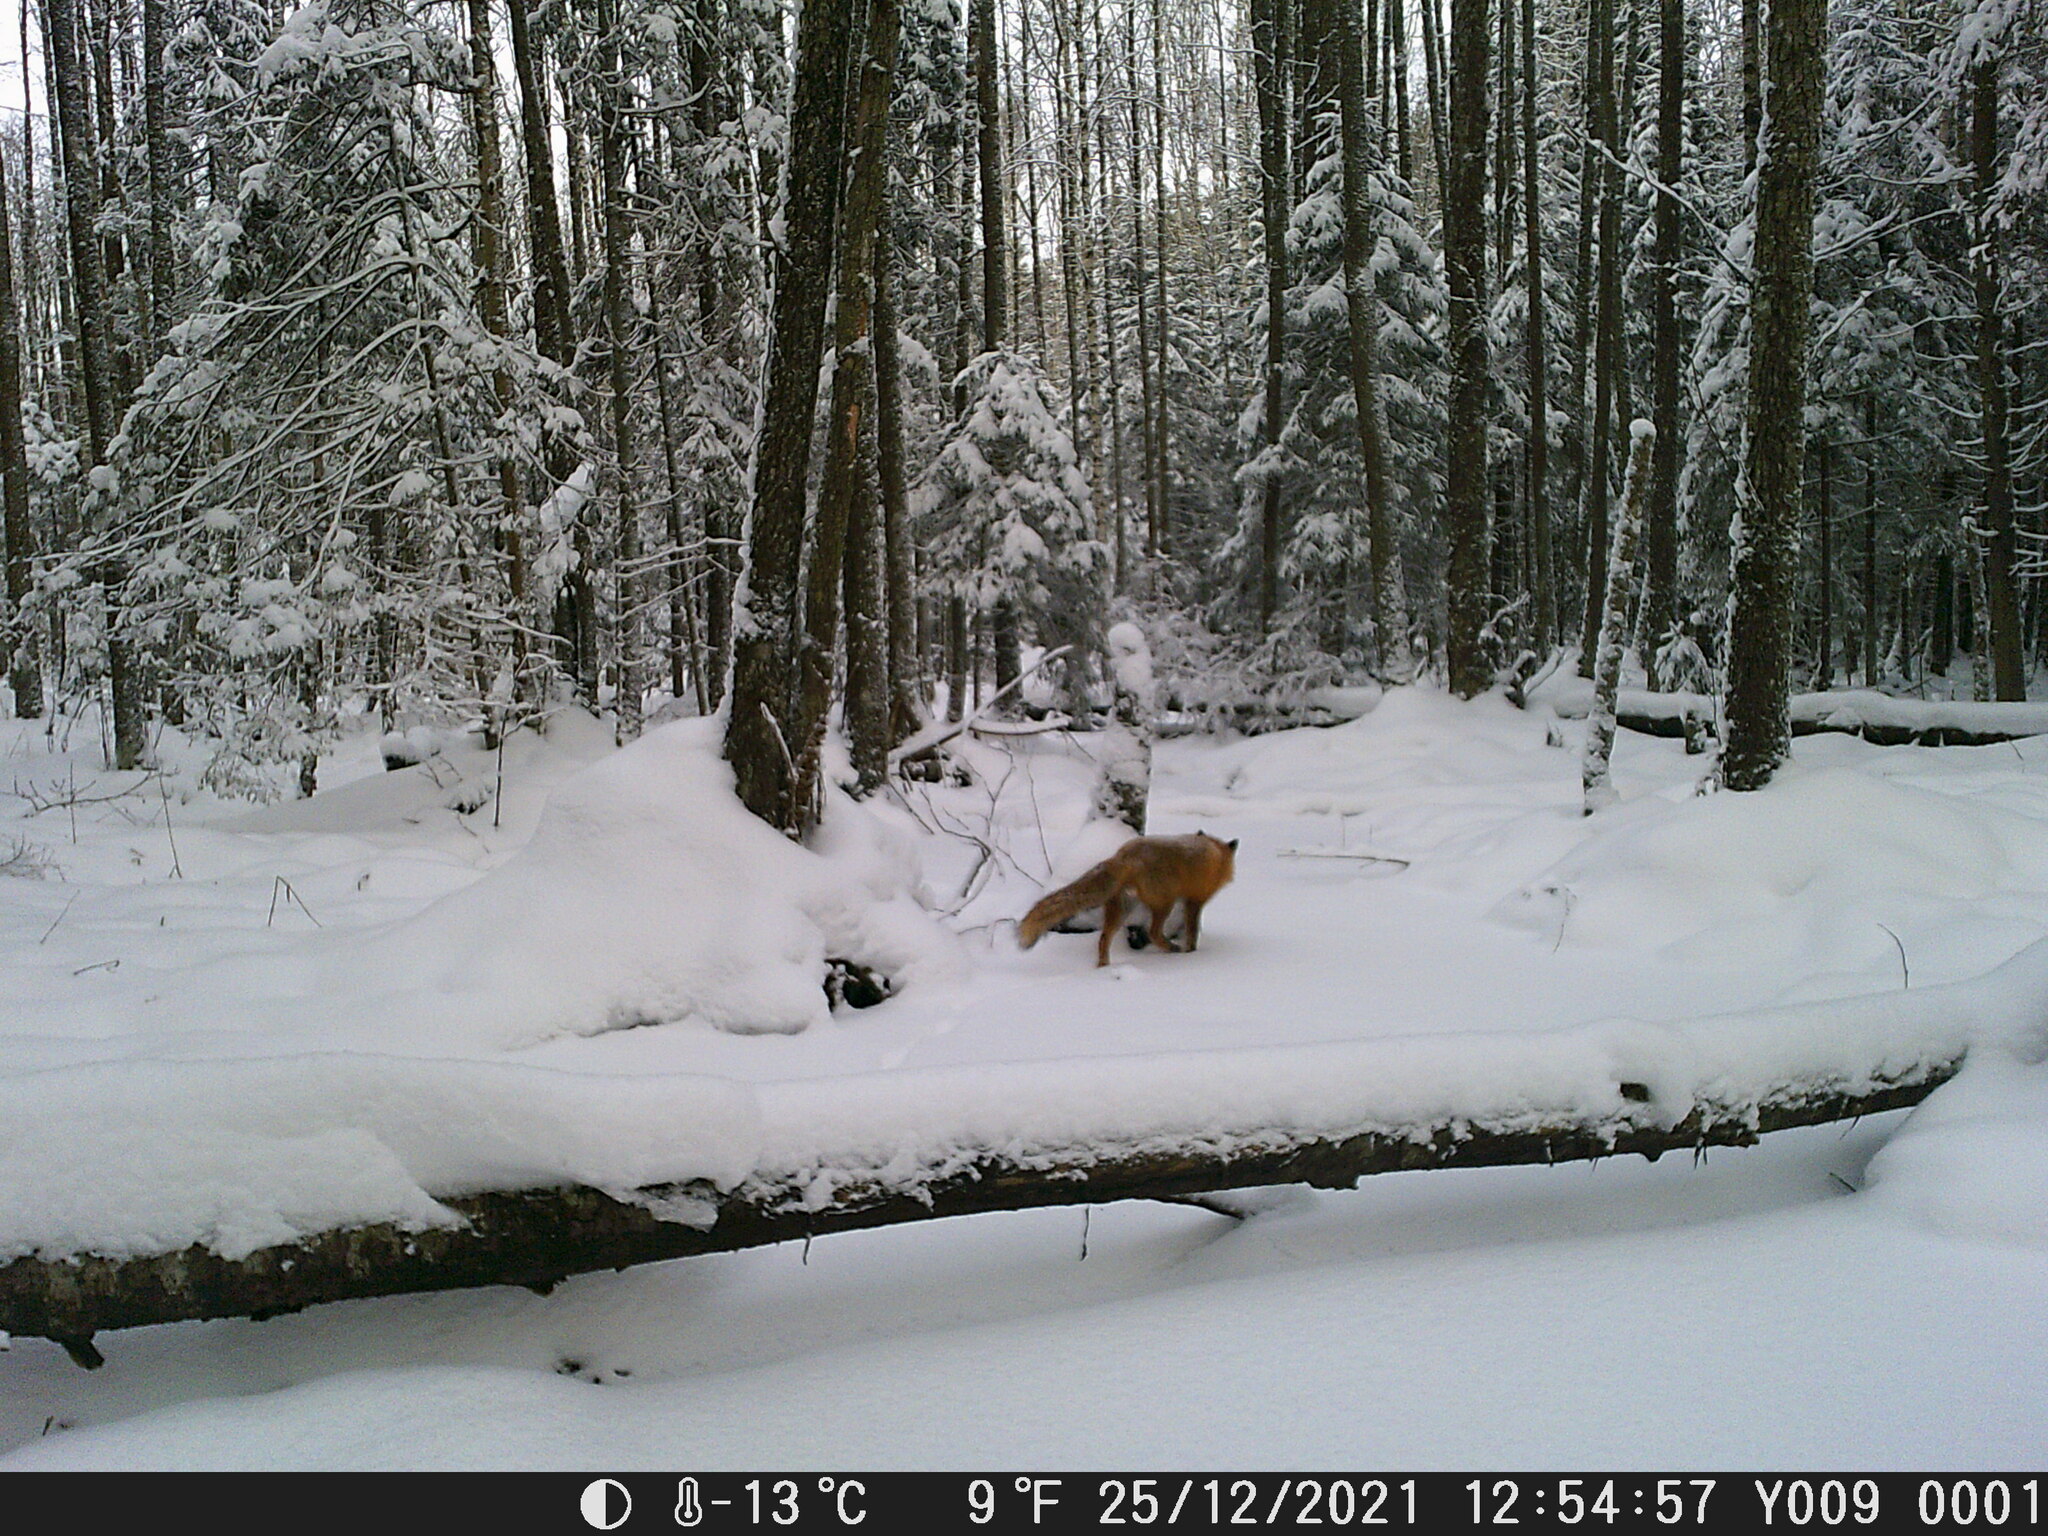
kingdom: Animalia
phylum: Chordata
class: Mammalia
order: Carnivora
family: Canidae
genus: Vulpes
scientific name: Vulpes vulpes
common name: Red fox
